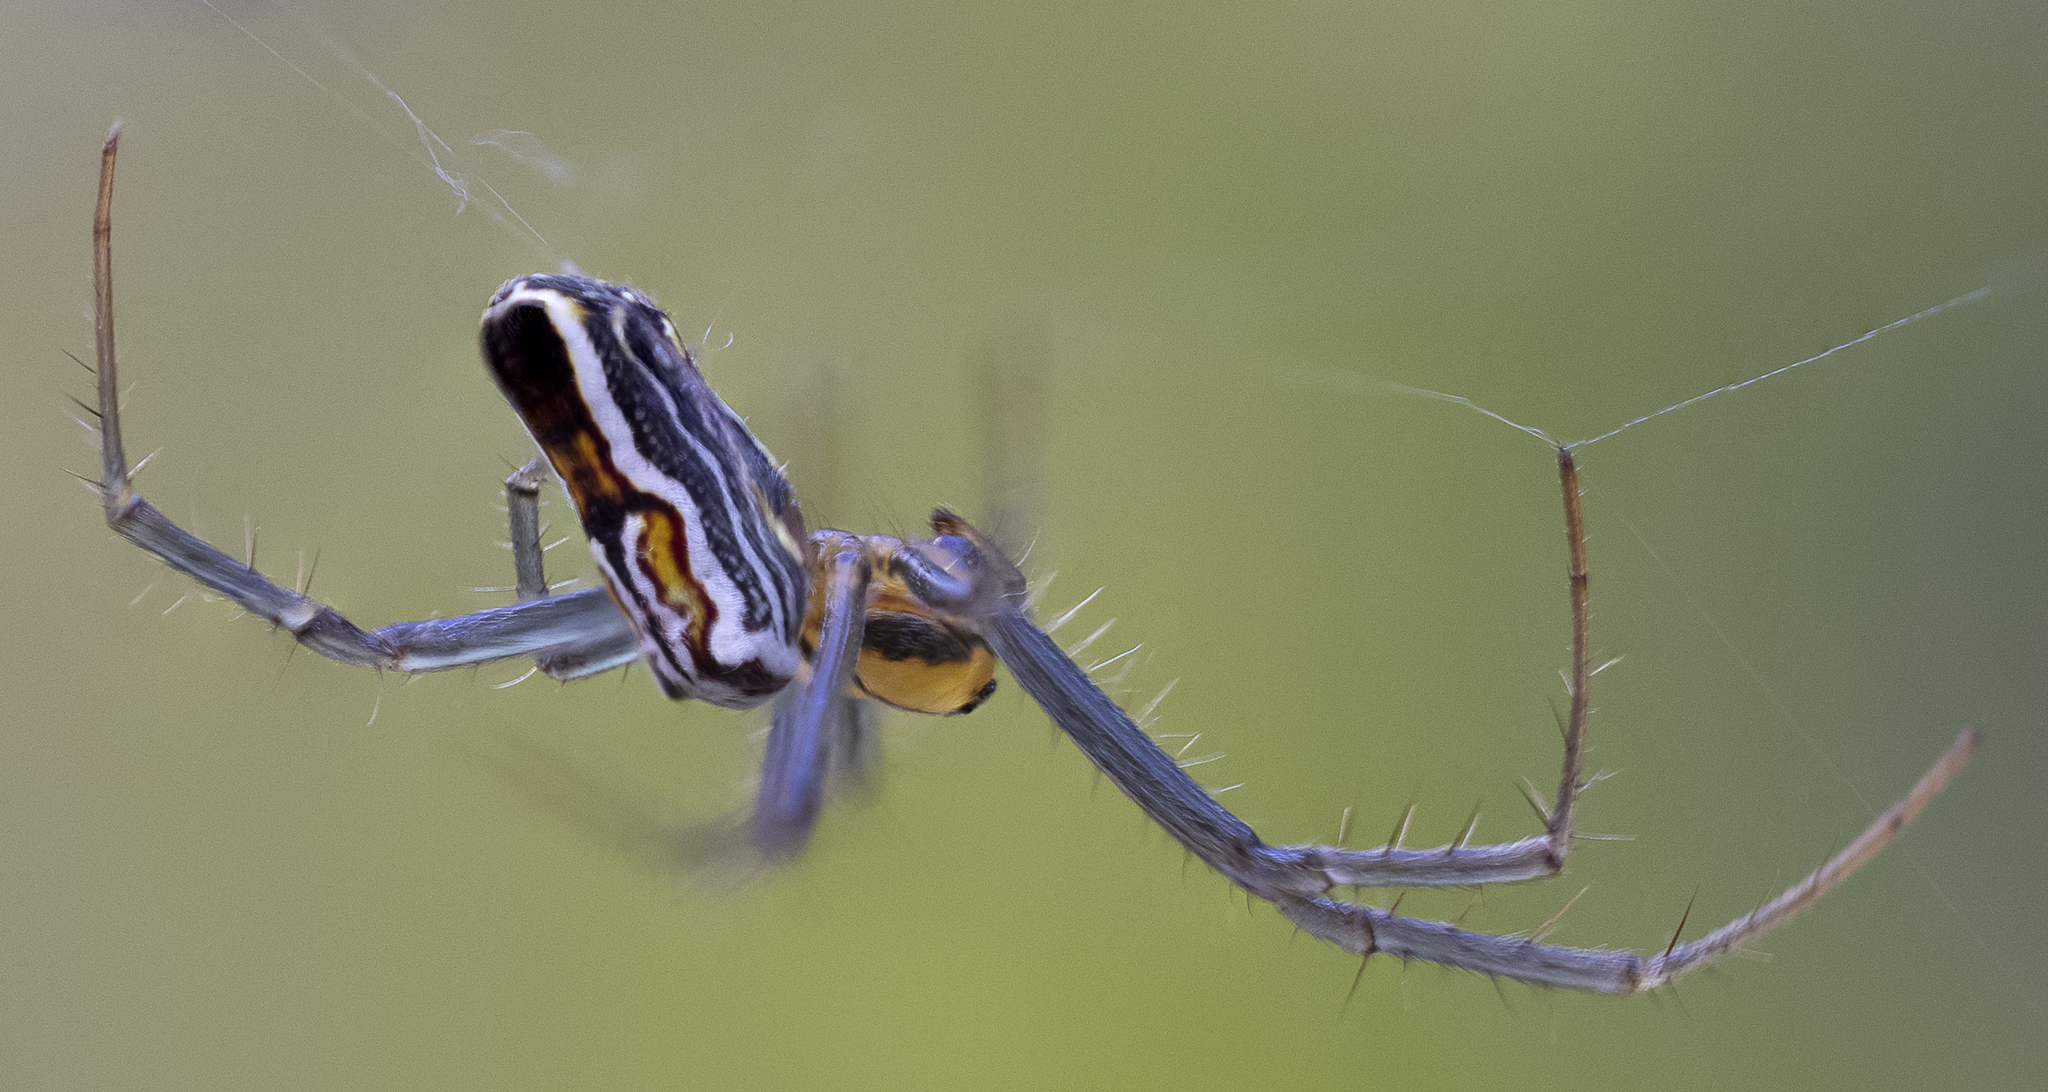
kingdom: Animalia
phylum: Arthropoda
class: Arachnida
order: Araneae
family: Araneidae
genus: Mecynogea
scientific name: Mecynogea lemniscata
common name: Orb weavers
